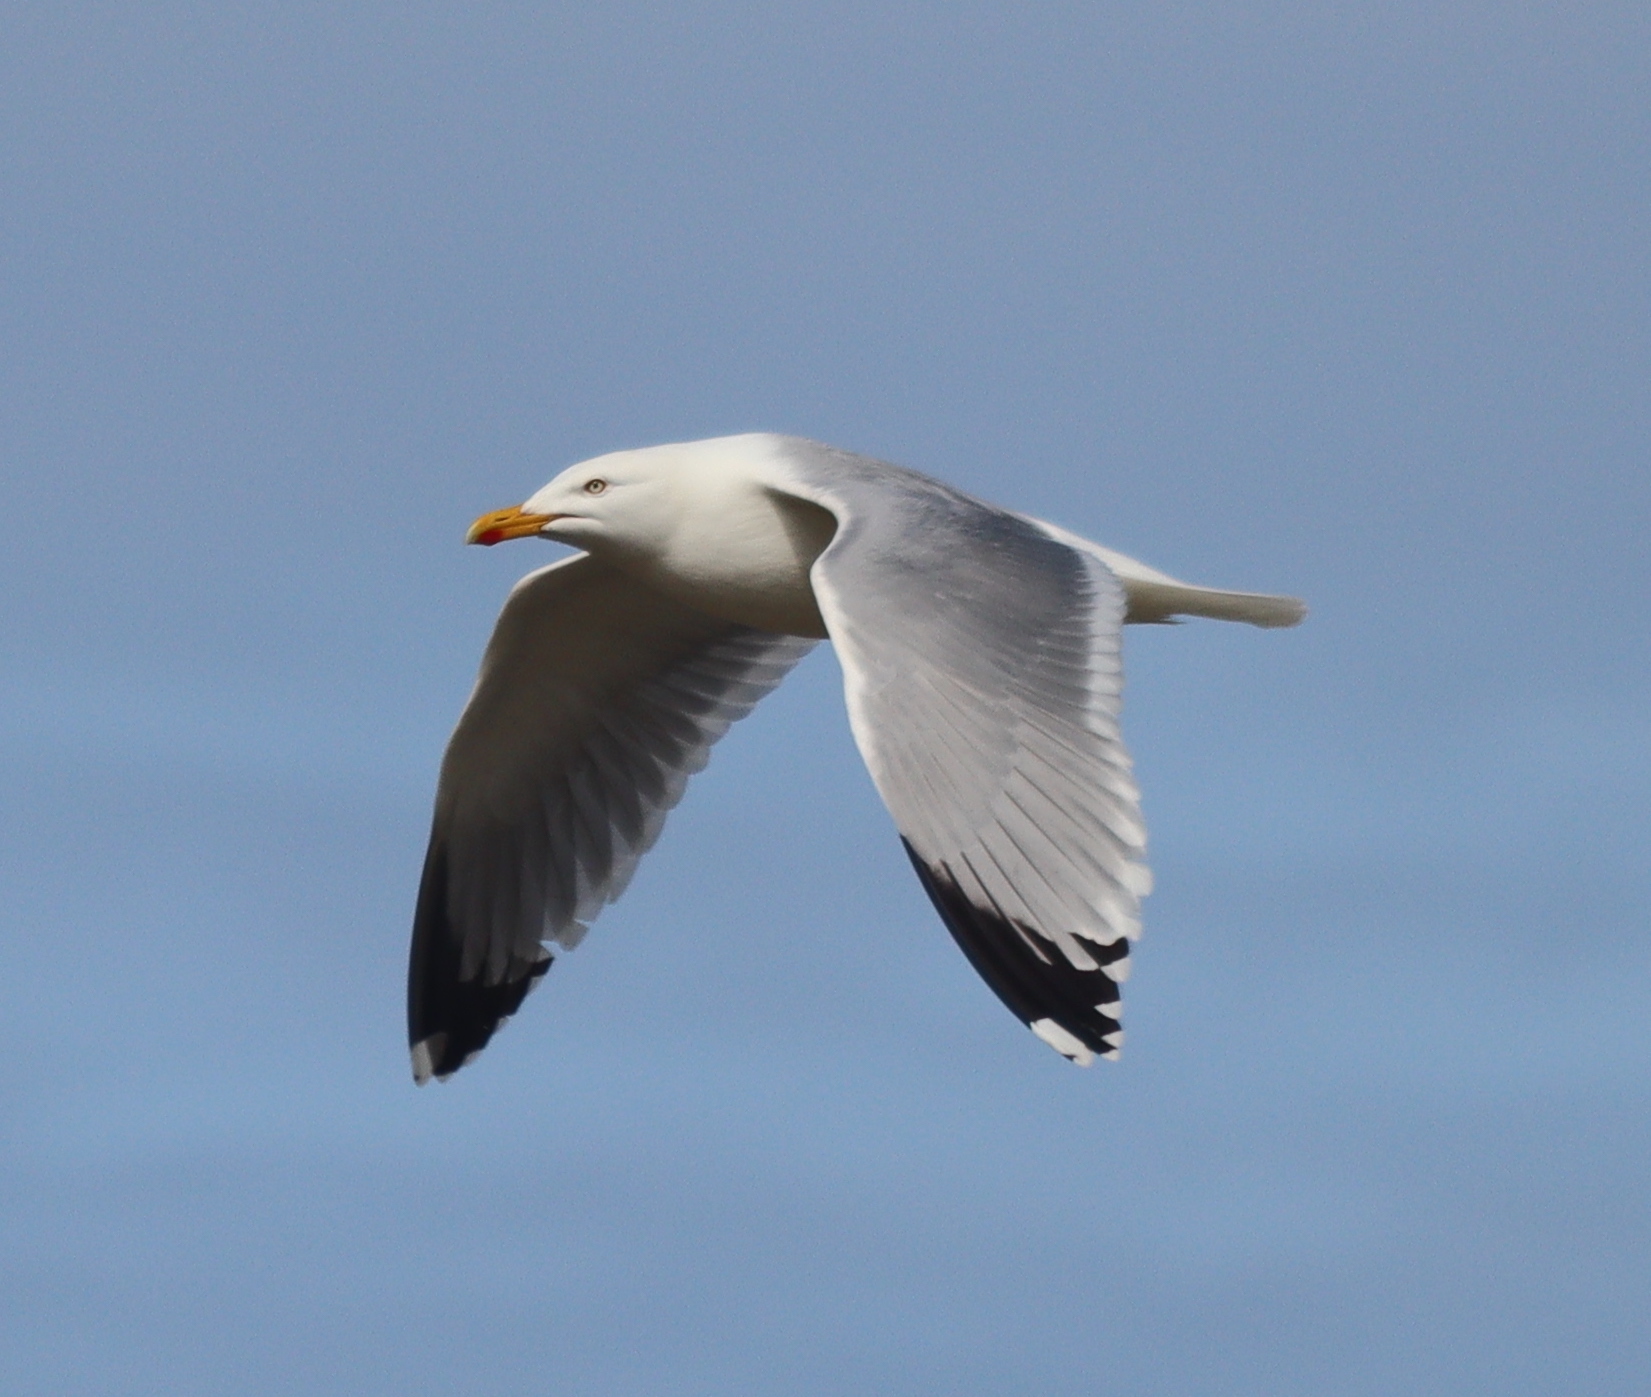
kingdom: Animalia
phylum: Chordata
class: Aves
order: Charadriiformes
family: Laridae
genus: Larus
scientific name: Larus argentatus
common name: Herring gull
